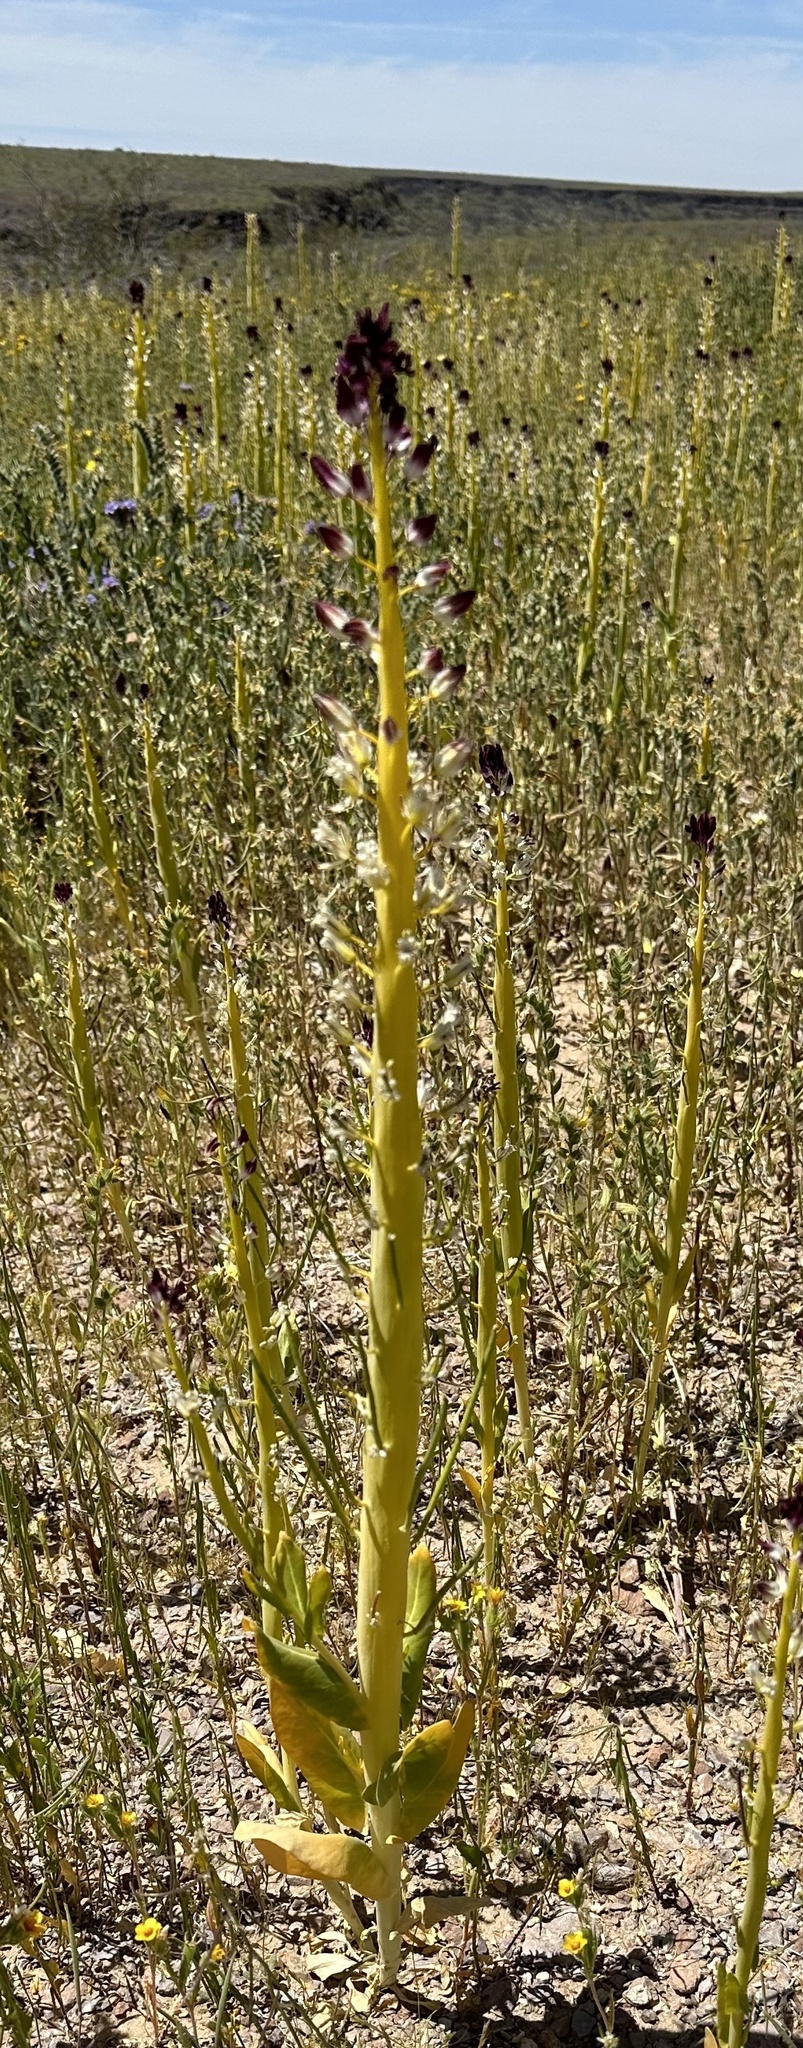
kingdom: Plantae
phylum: Tracheophyta
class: Magnoliopsida
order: Brassicales
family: Brassicaceae
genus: Streptanthus
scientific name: Streptanthus inflatus
